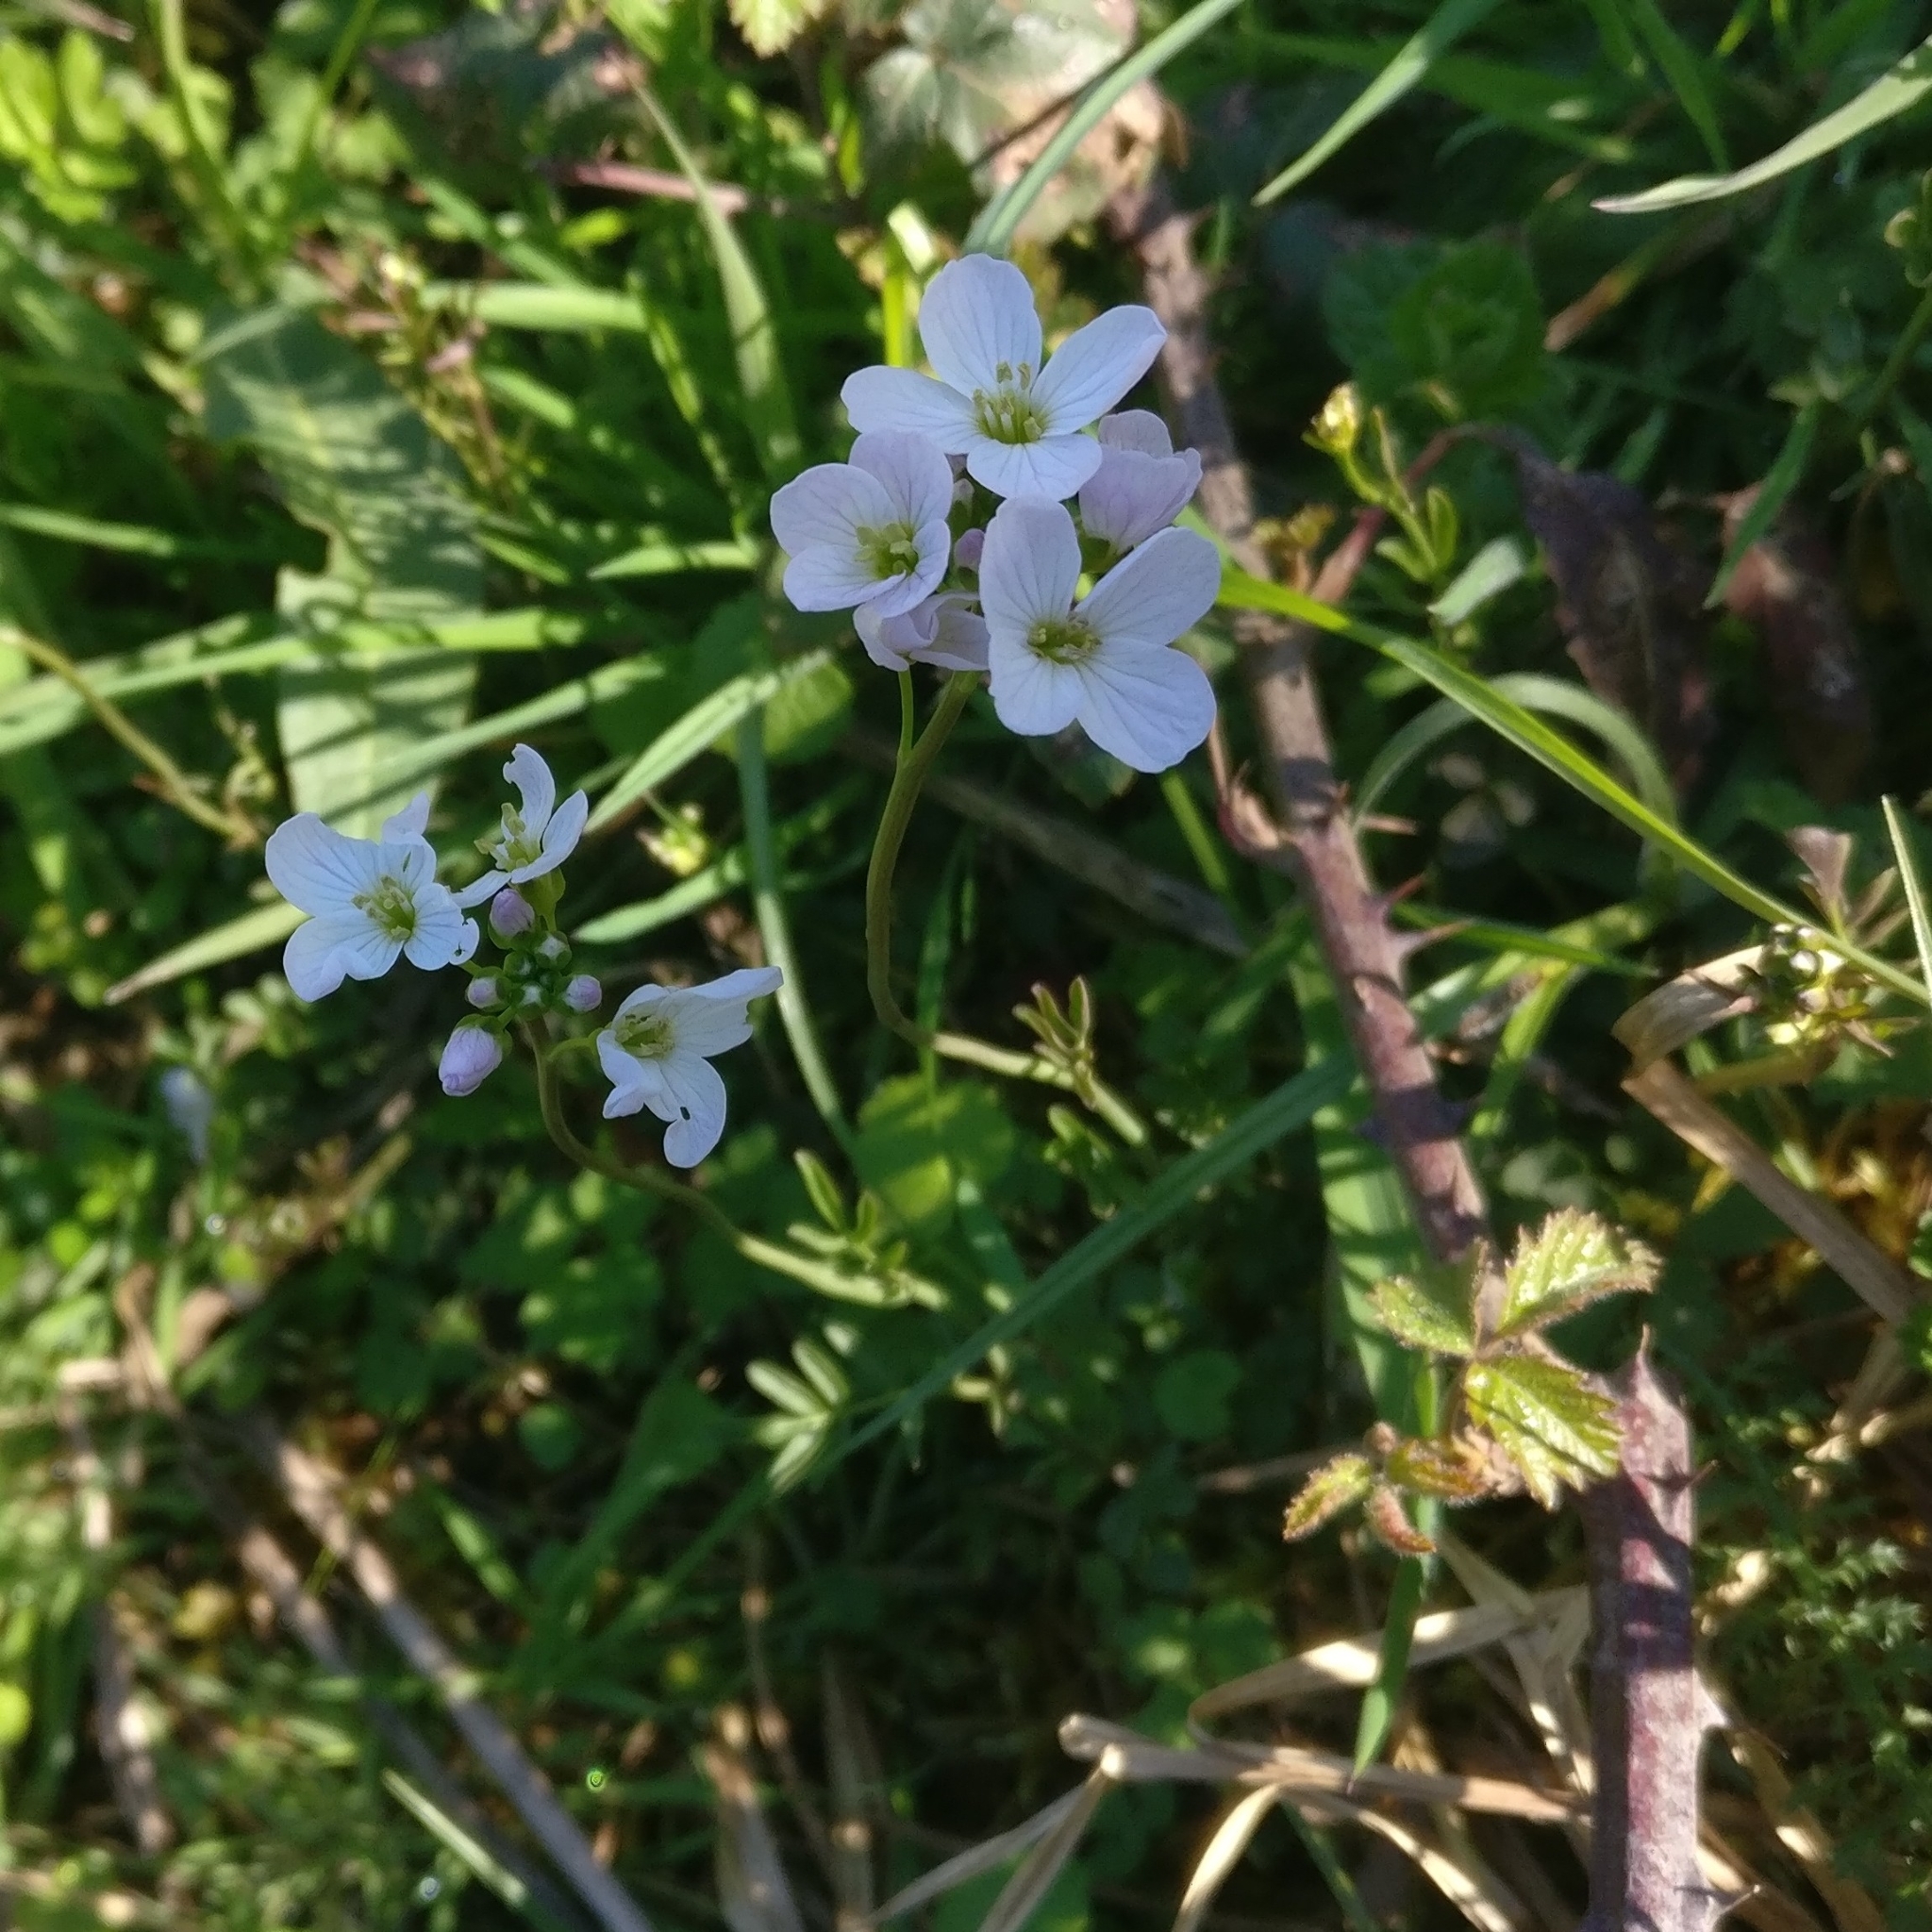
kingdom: Plantae
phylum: Tracheophyta
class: Magnoliopsida
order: Brassicales
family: Brassicaceae
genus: Cardamine
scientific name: Cardamine pratensis
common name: Cuckoo flower
